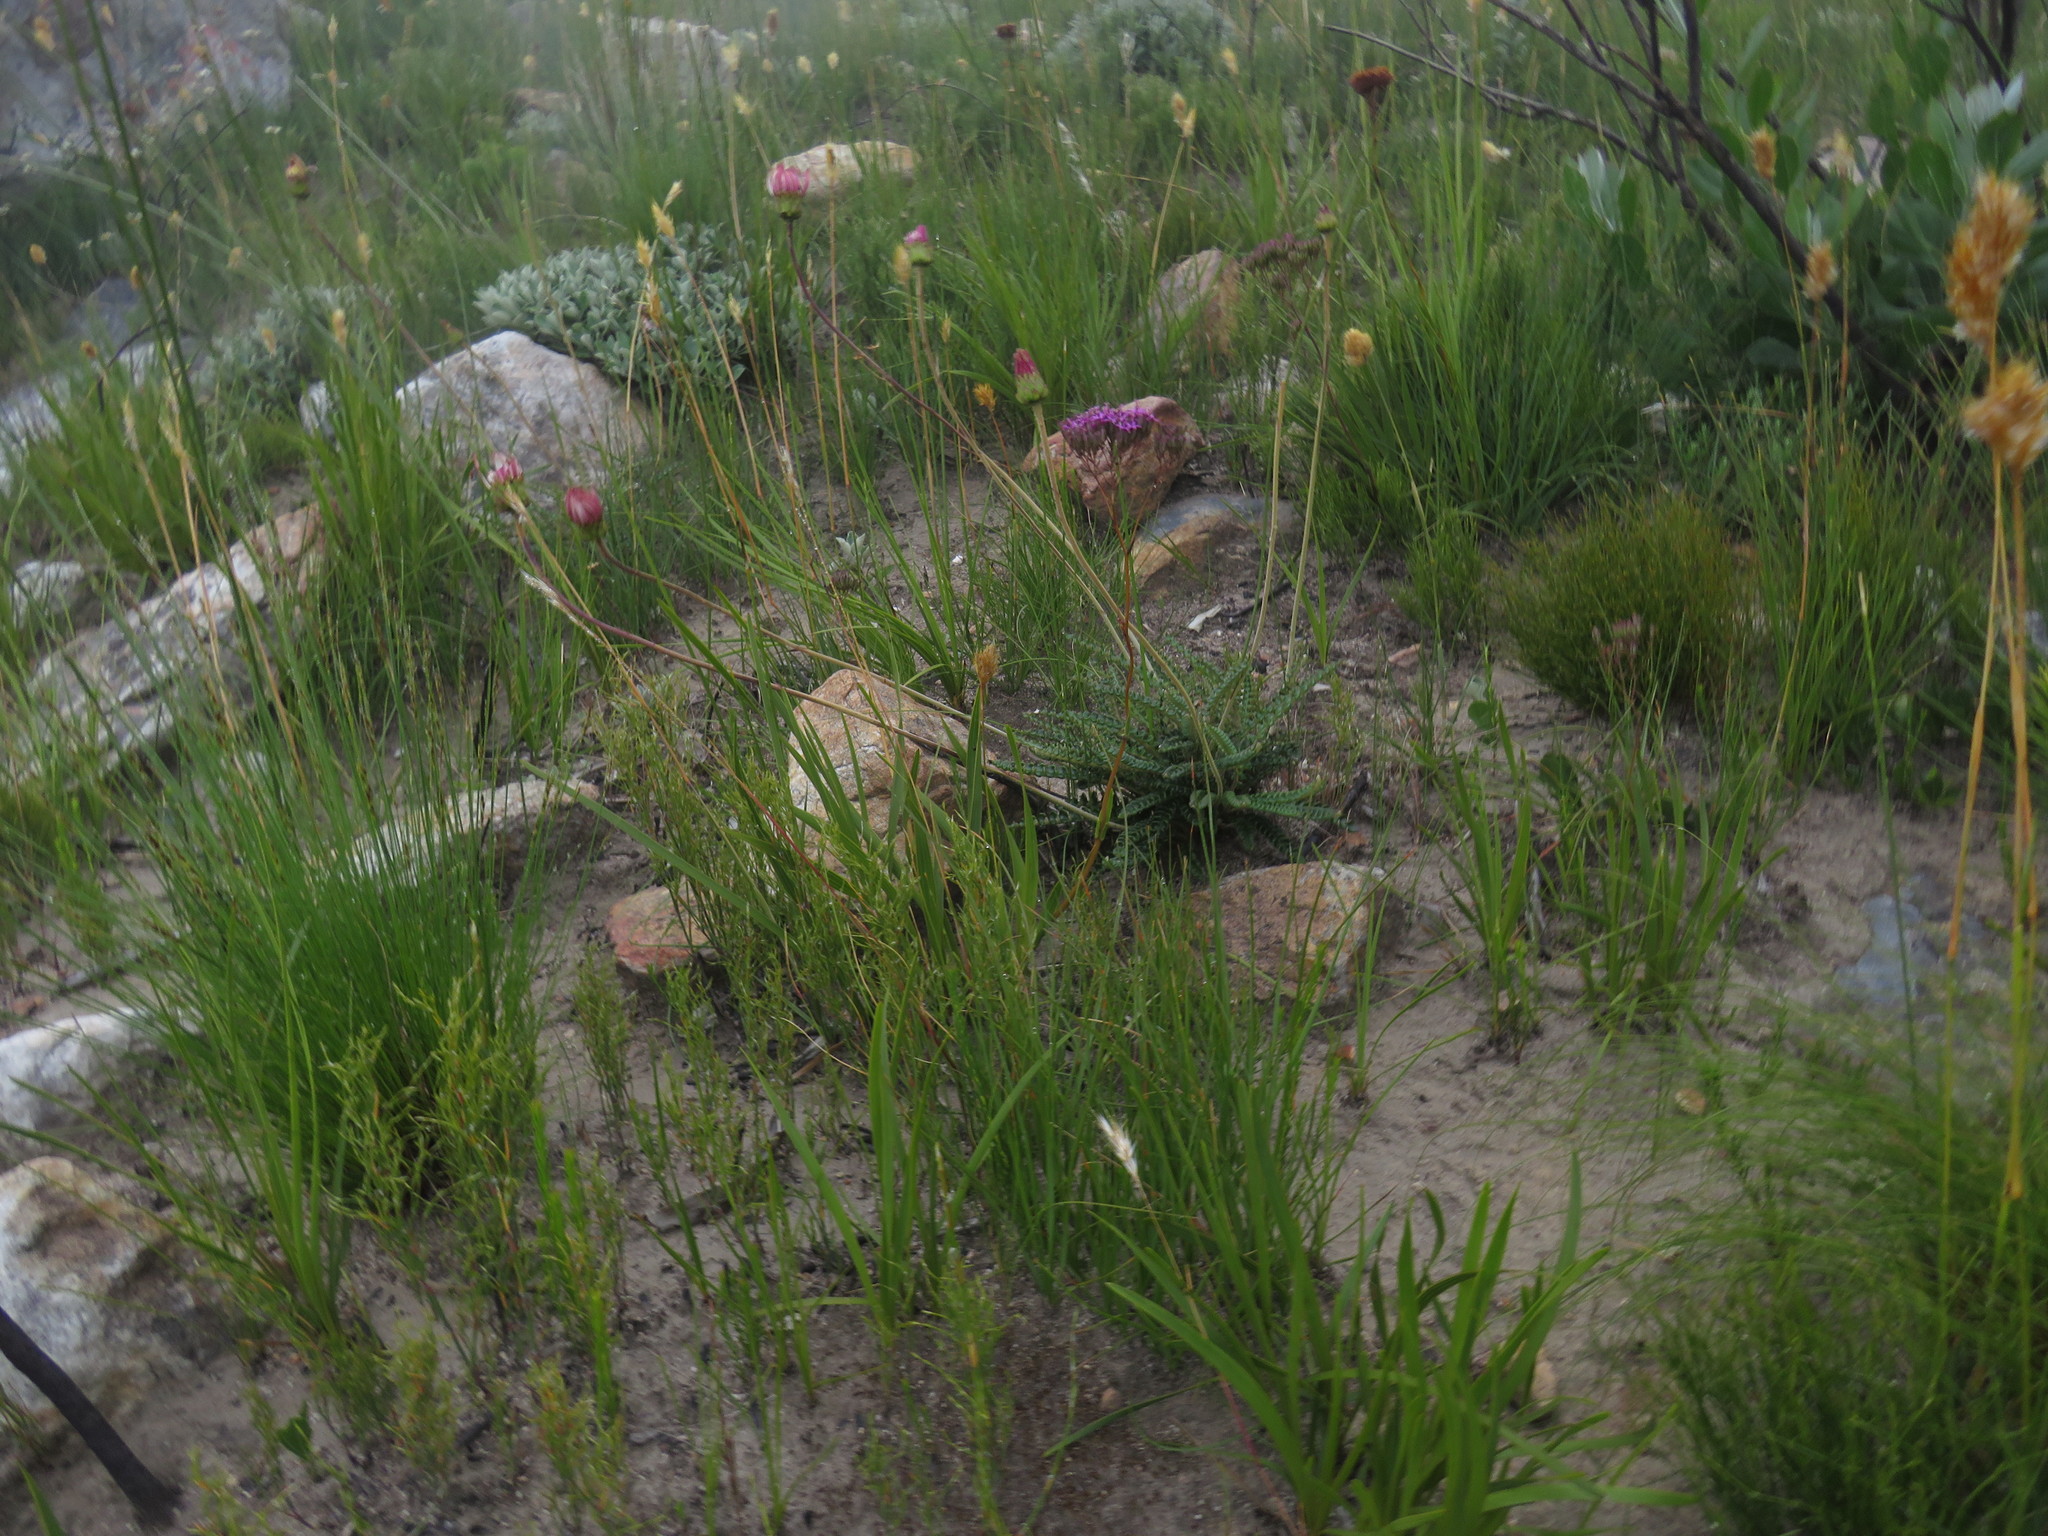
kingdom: Plantae
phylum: Tracheophyta
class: Magnoliopsida
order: Asterales
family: Asteraceae
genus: Gerbera
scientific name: Gerbera linnaei
